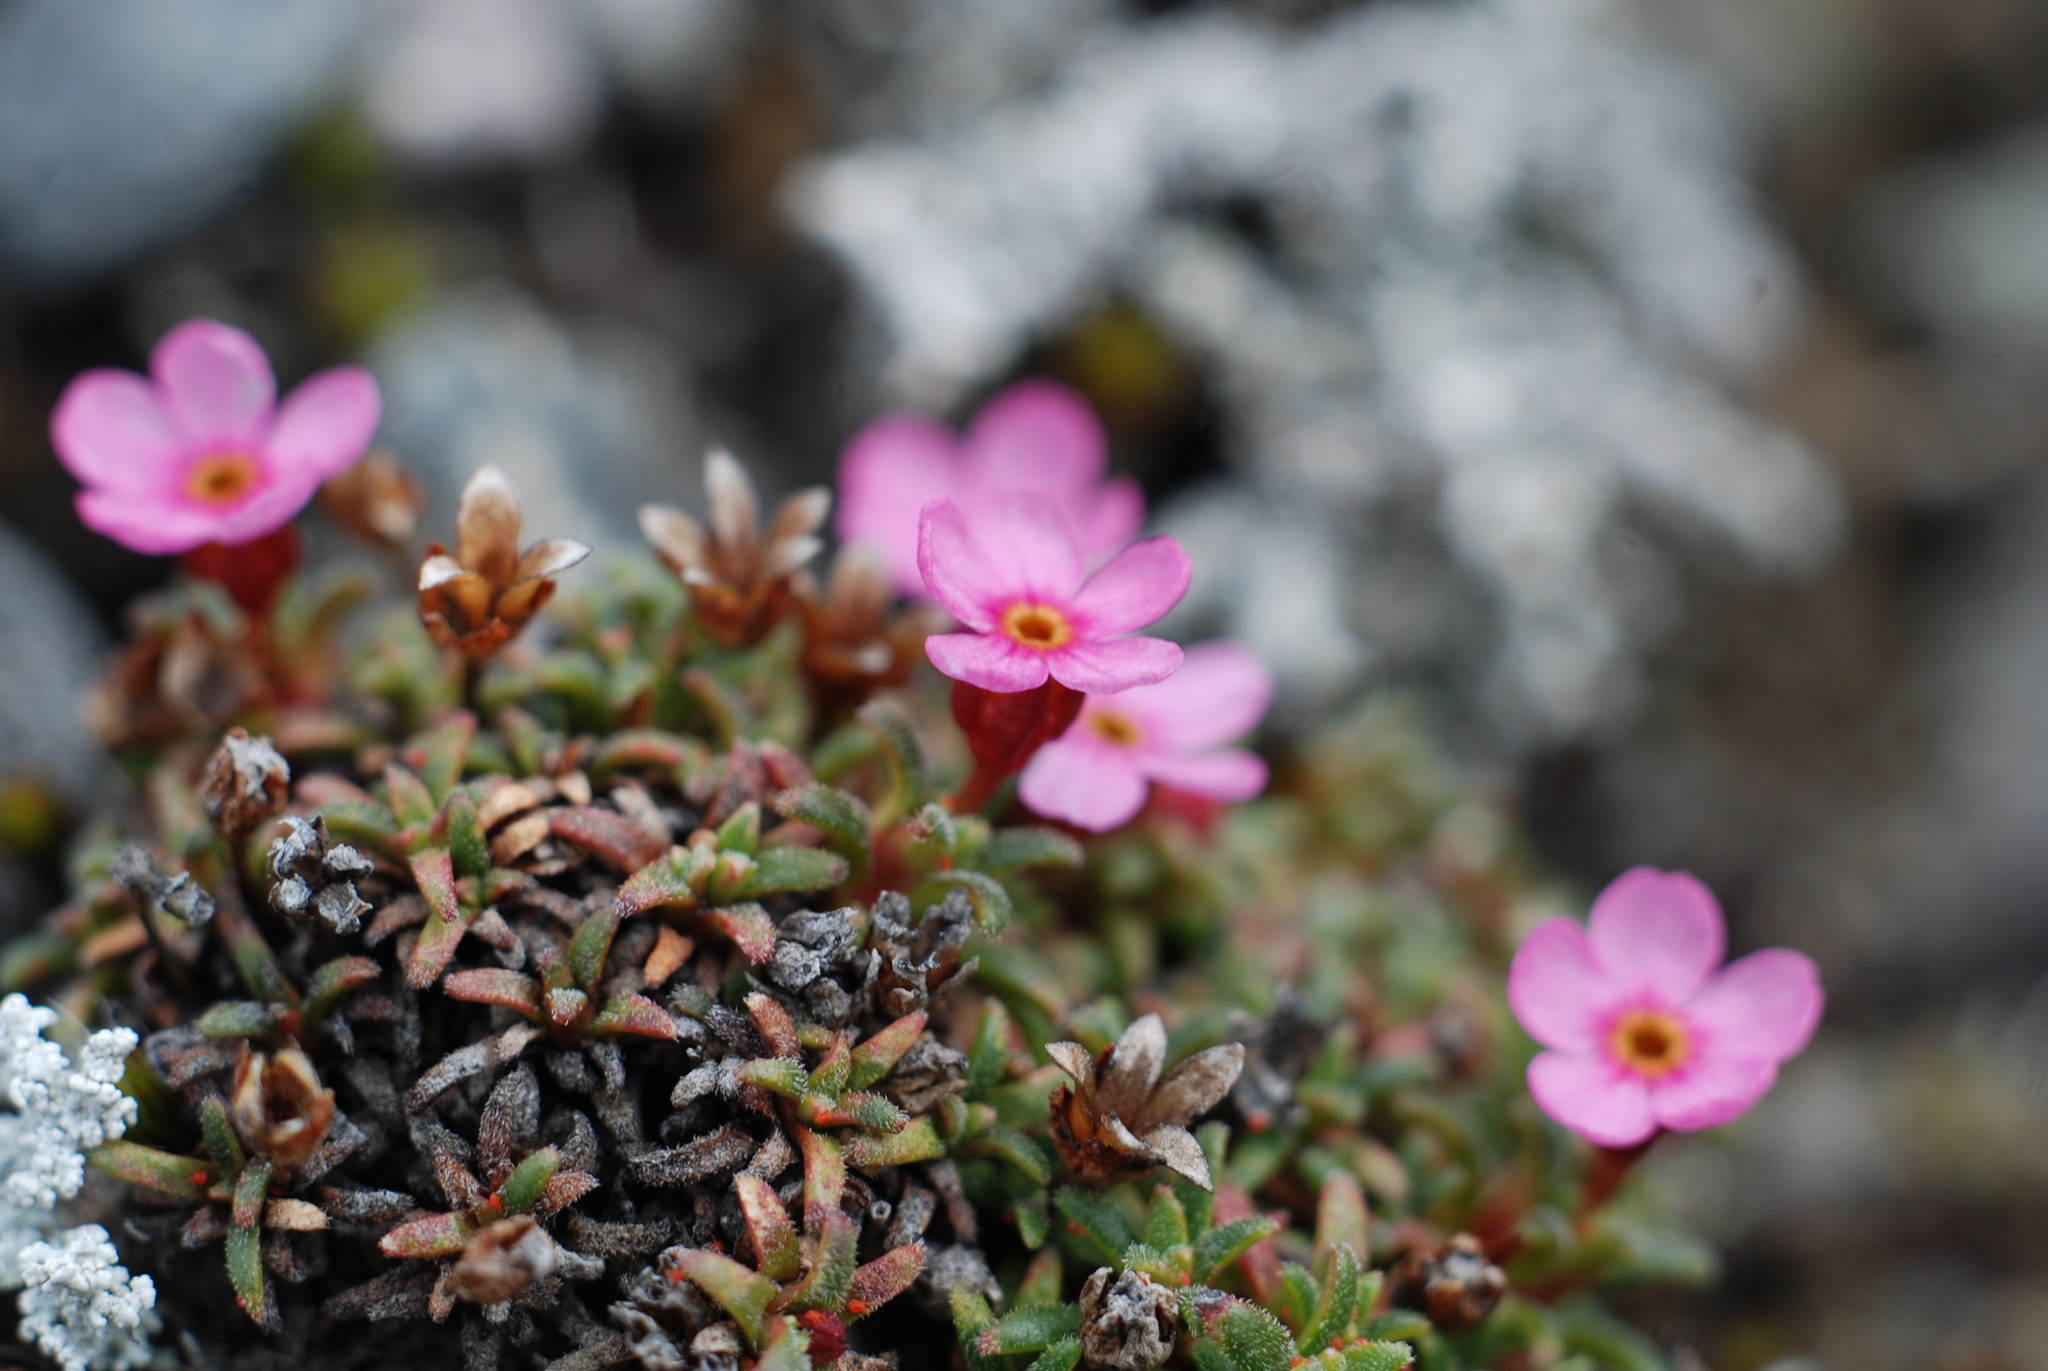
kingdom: Plantae
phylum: Tracheophyta
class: Magnoliopsida
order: Ericales
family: Primulaceae
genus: Androsace
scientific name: Androsace ochotensis
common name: Alaska dwarf-primrose
